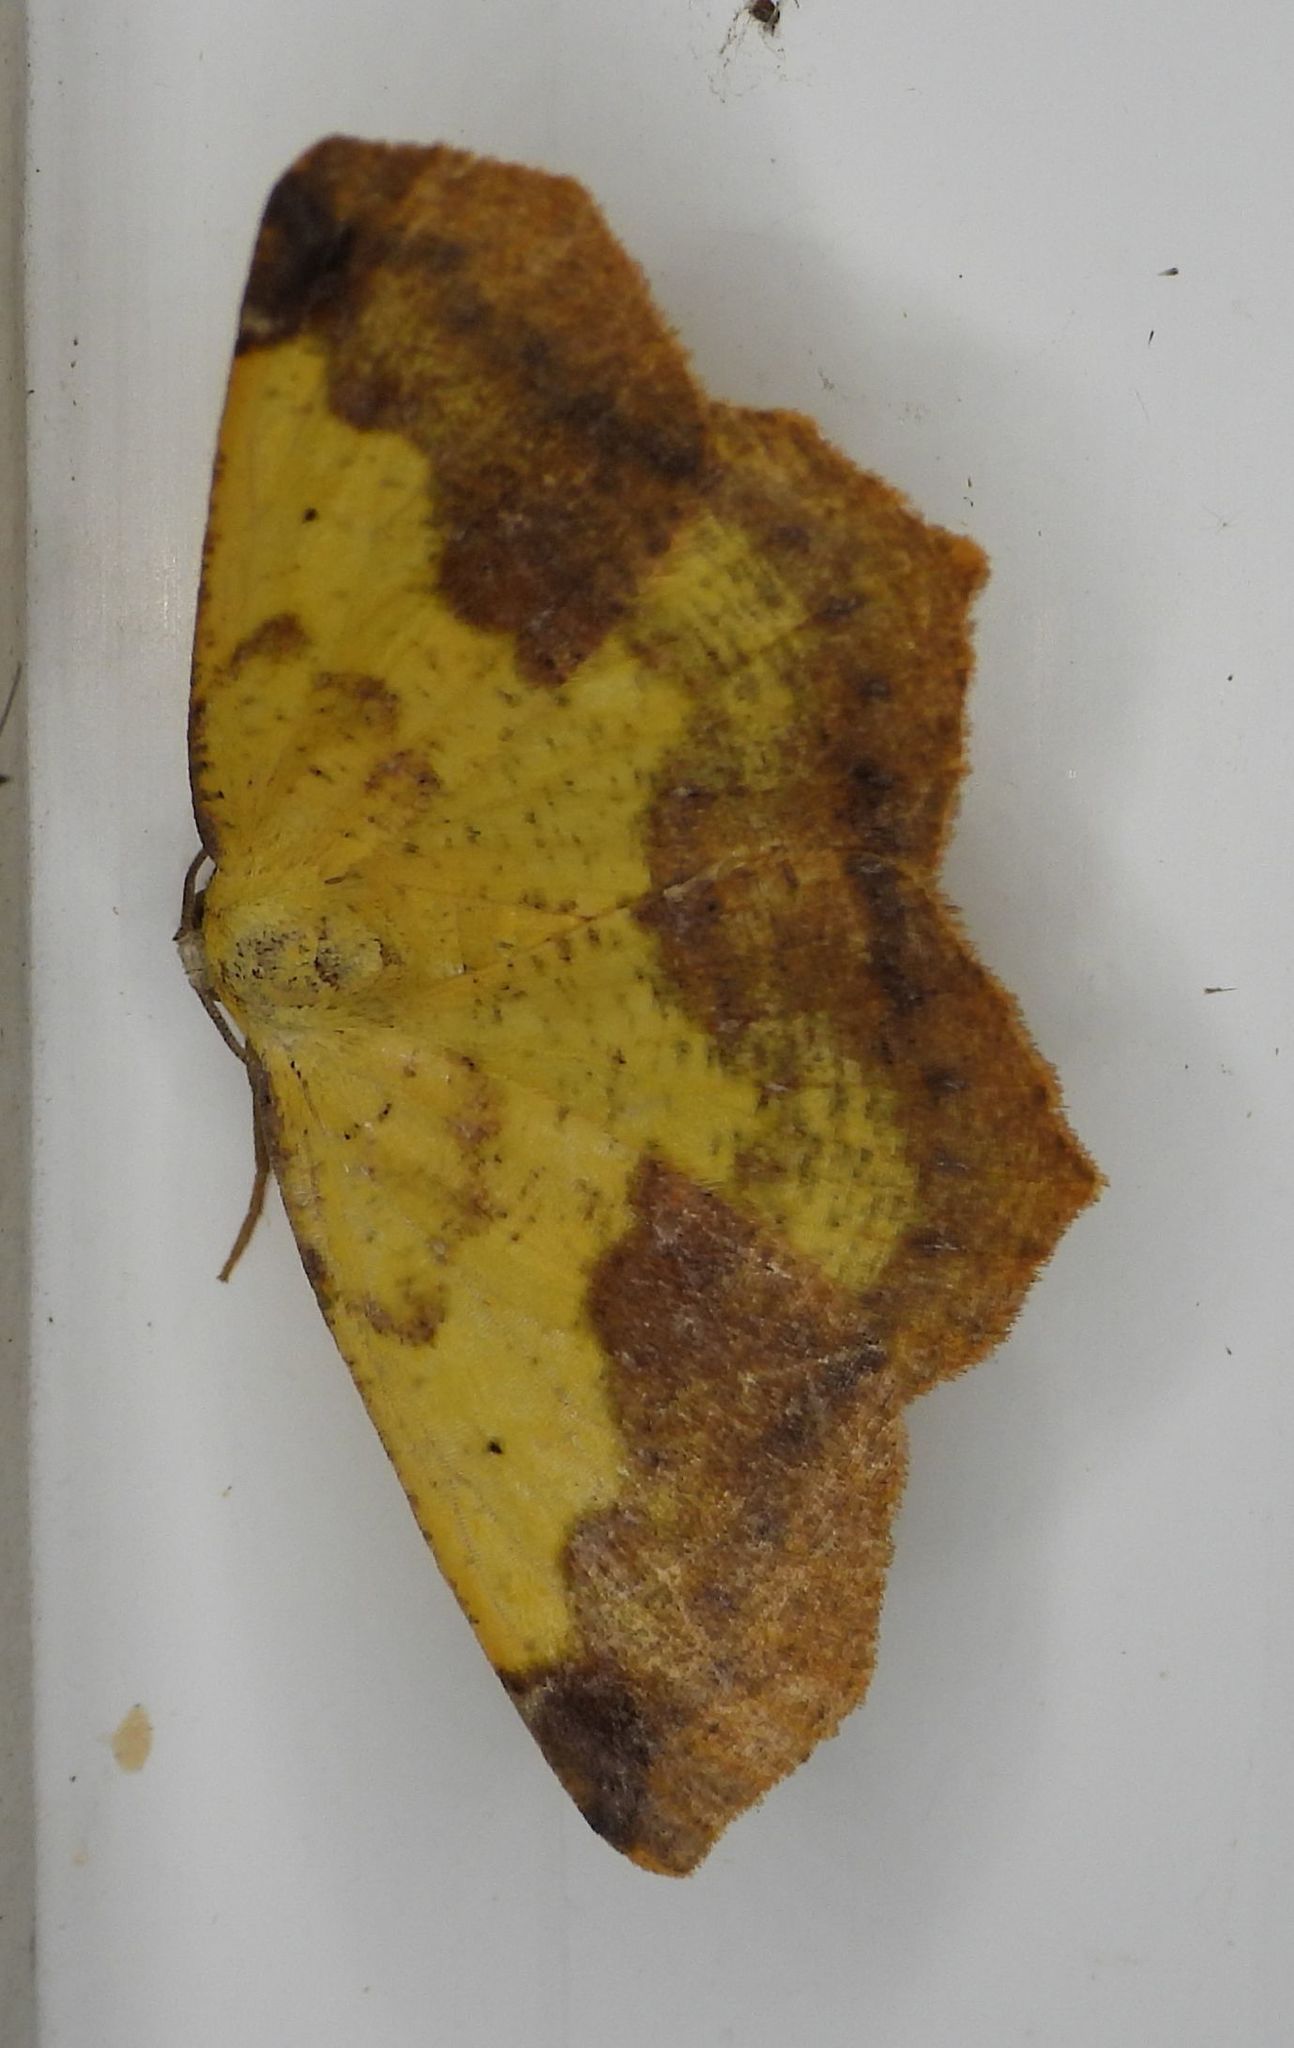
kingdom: Animalia
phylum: Arthropoda
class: Insecta
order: Lepidoptera
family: Geometridae
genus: Antepione
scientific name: Antepione thisoaria
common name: Variable antipione
